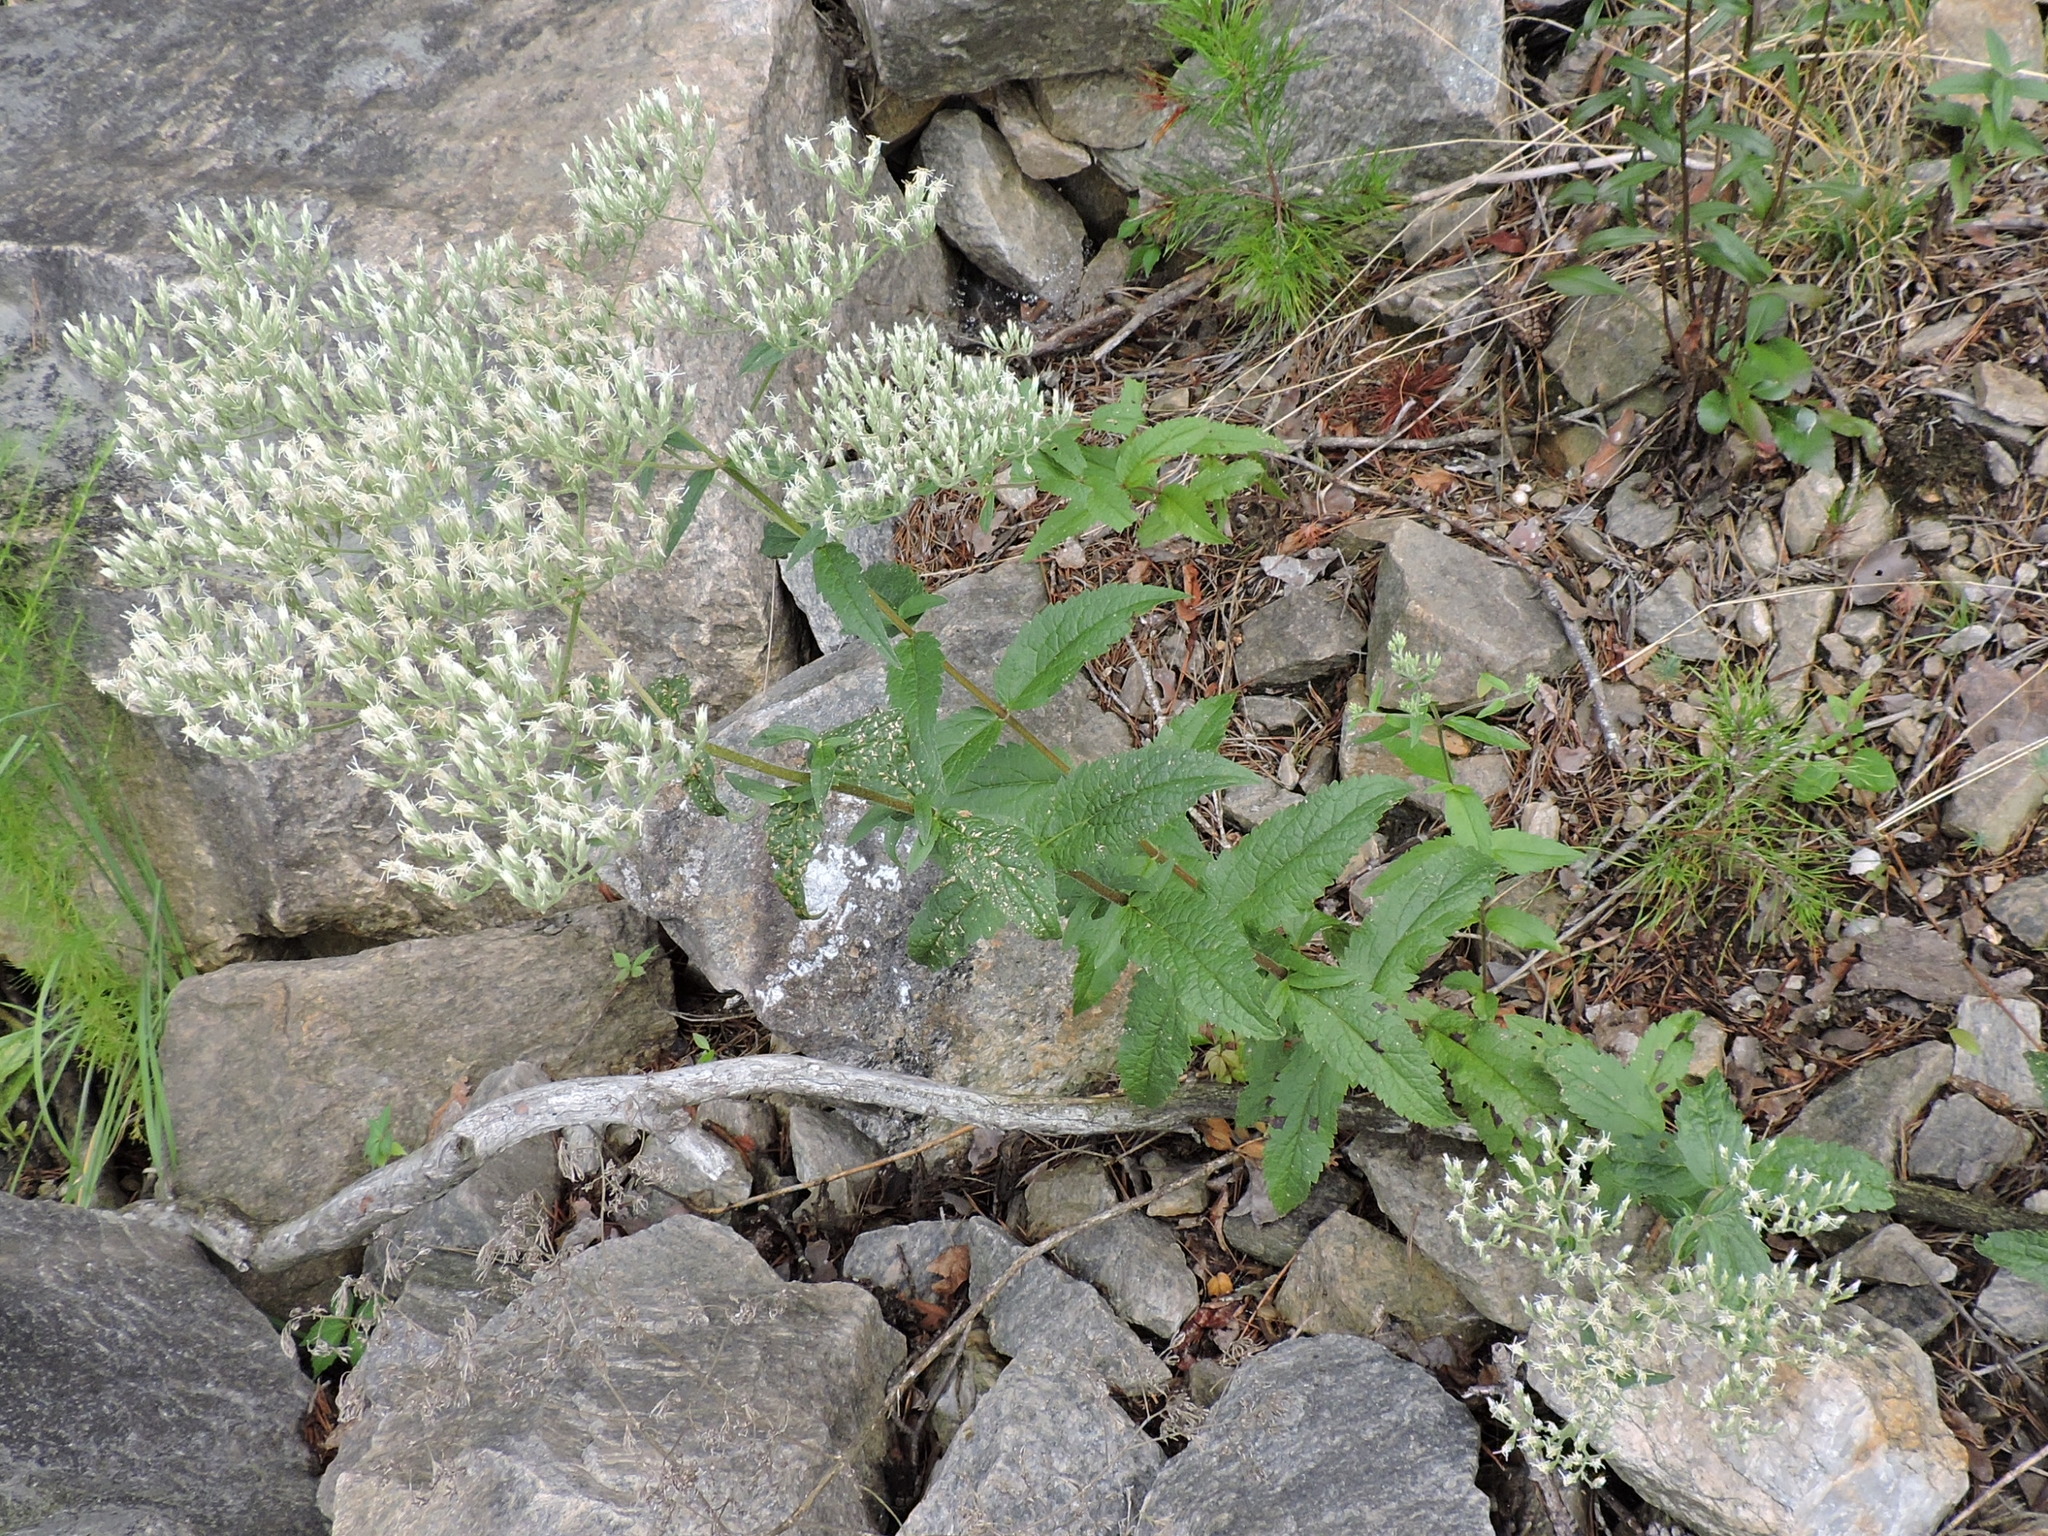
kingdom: Plantae
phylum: Tracheophyta
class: Magnoliopsida
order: Asterales
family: Asteraceae
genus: Eupatorium
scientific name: Eupatorium album
